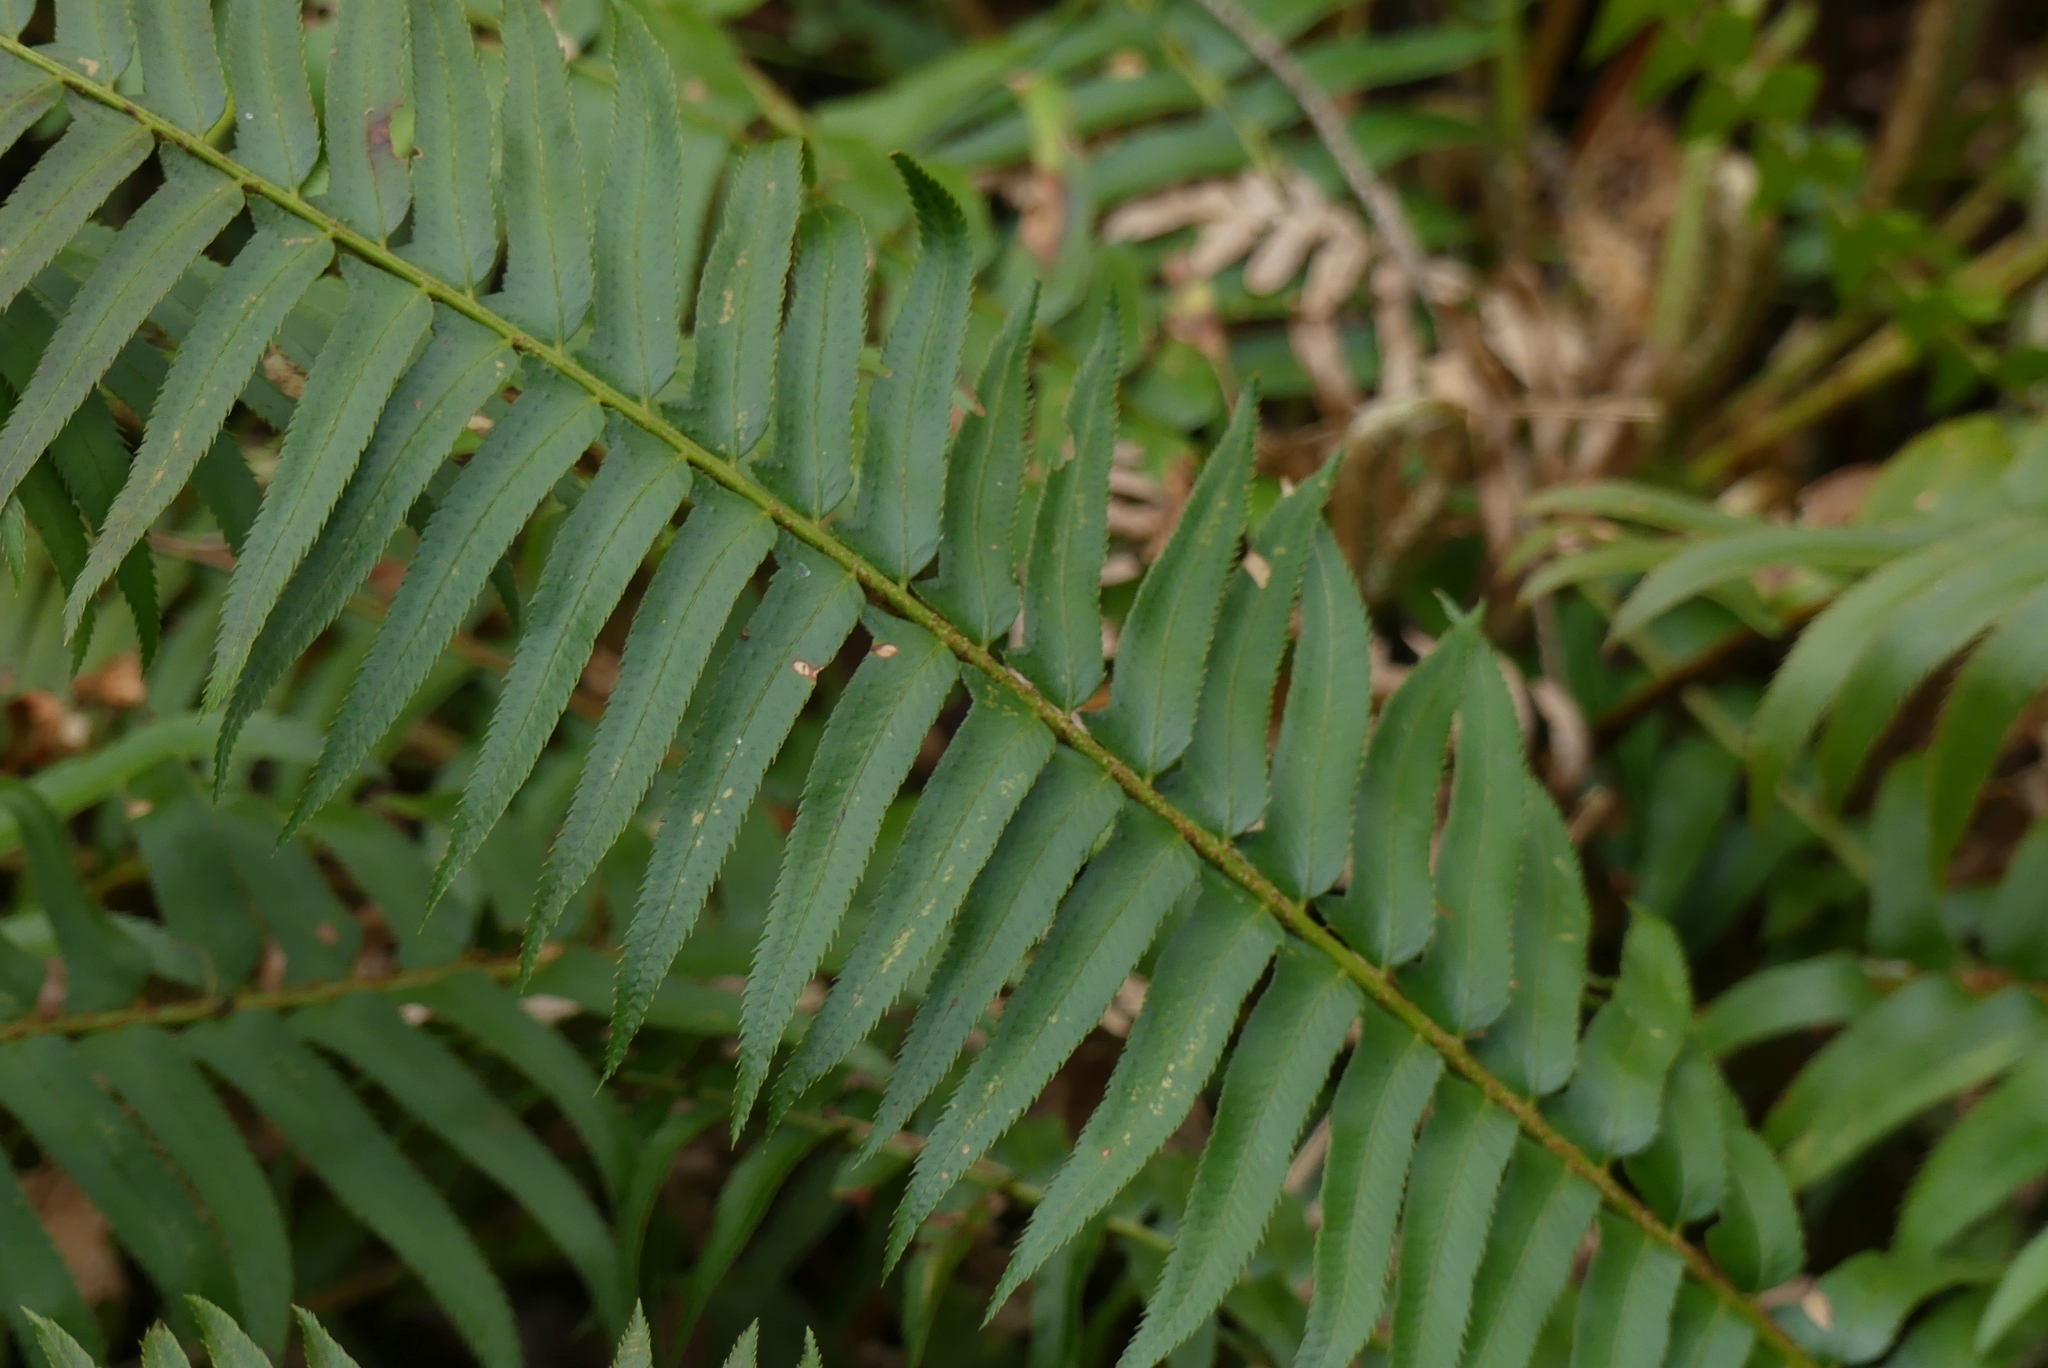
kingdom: Plantae
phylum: Tracheophyta
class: Polypodiopsida
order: Polypodiales
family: Dryopteridaceae
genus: Polystichum
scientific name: Polystichum munitum
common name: Western sword-fern
